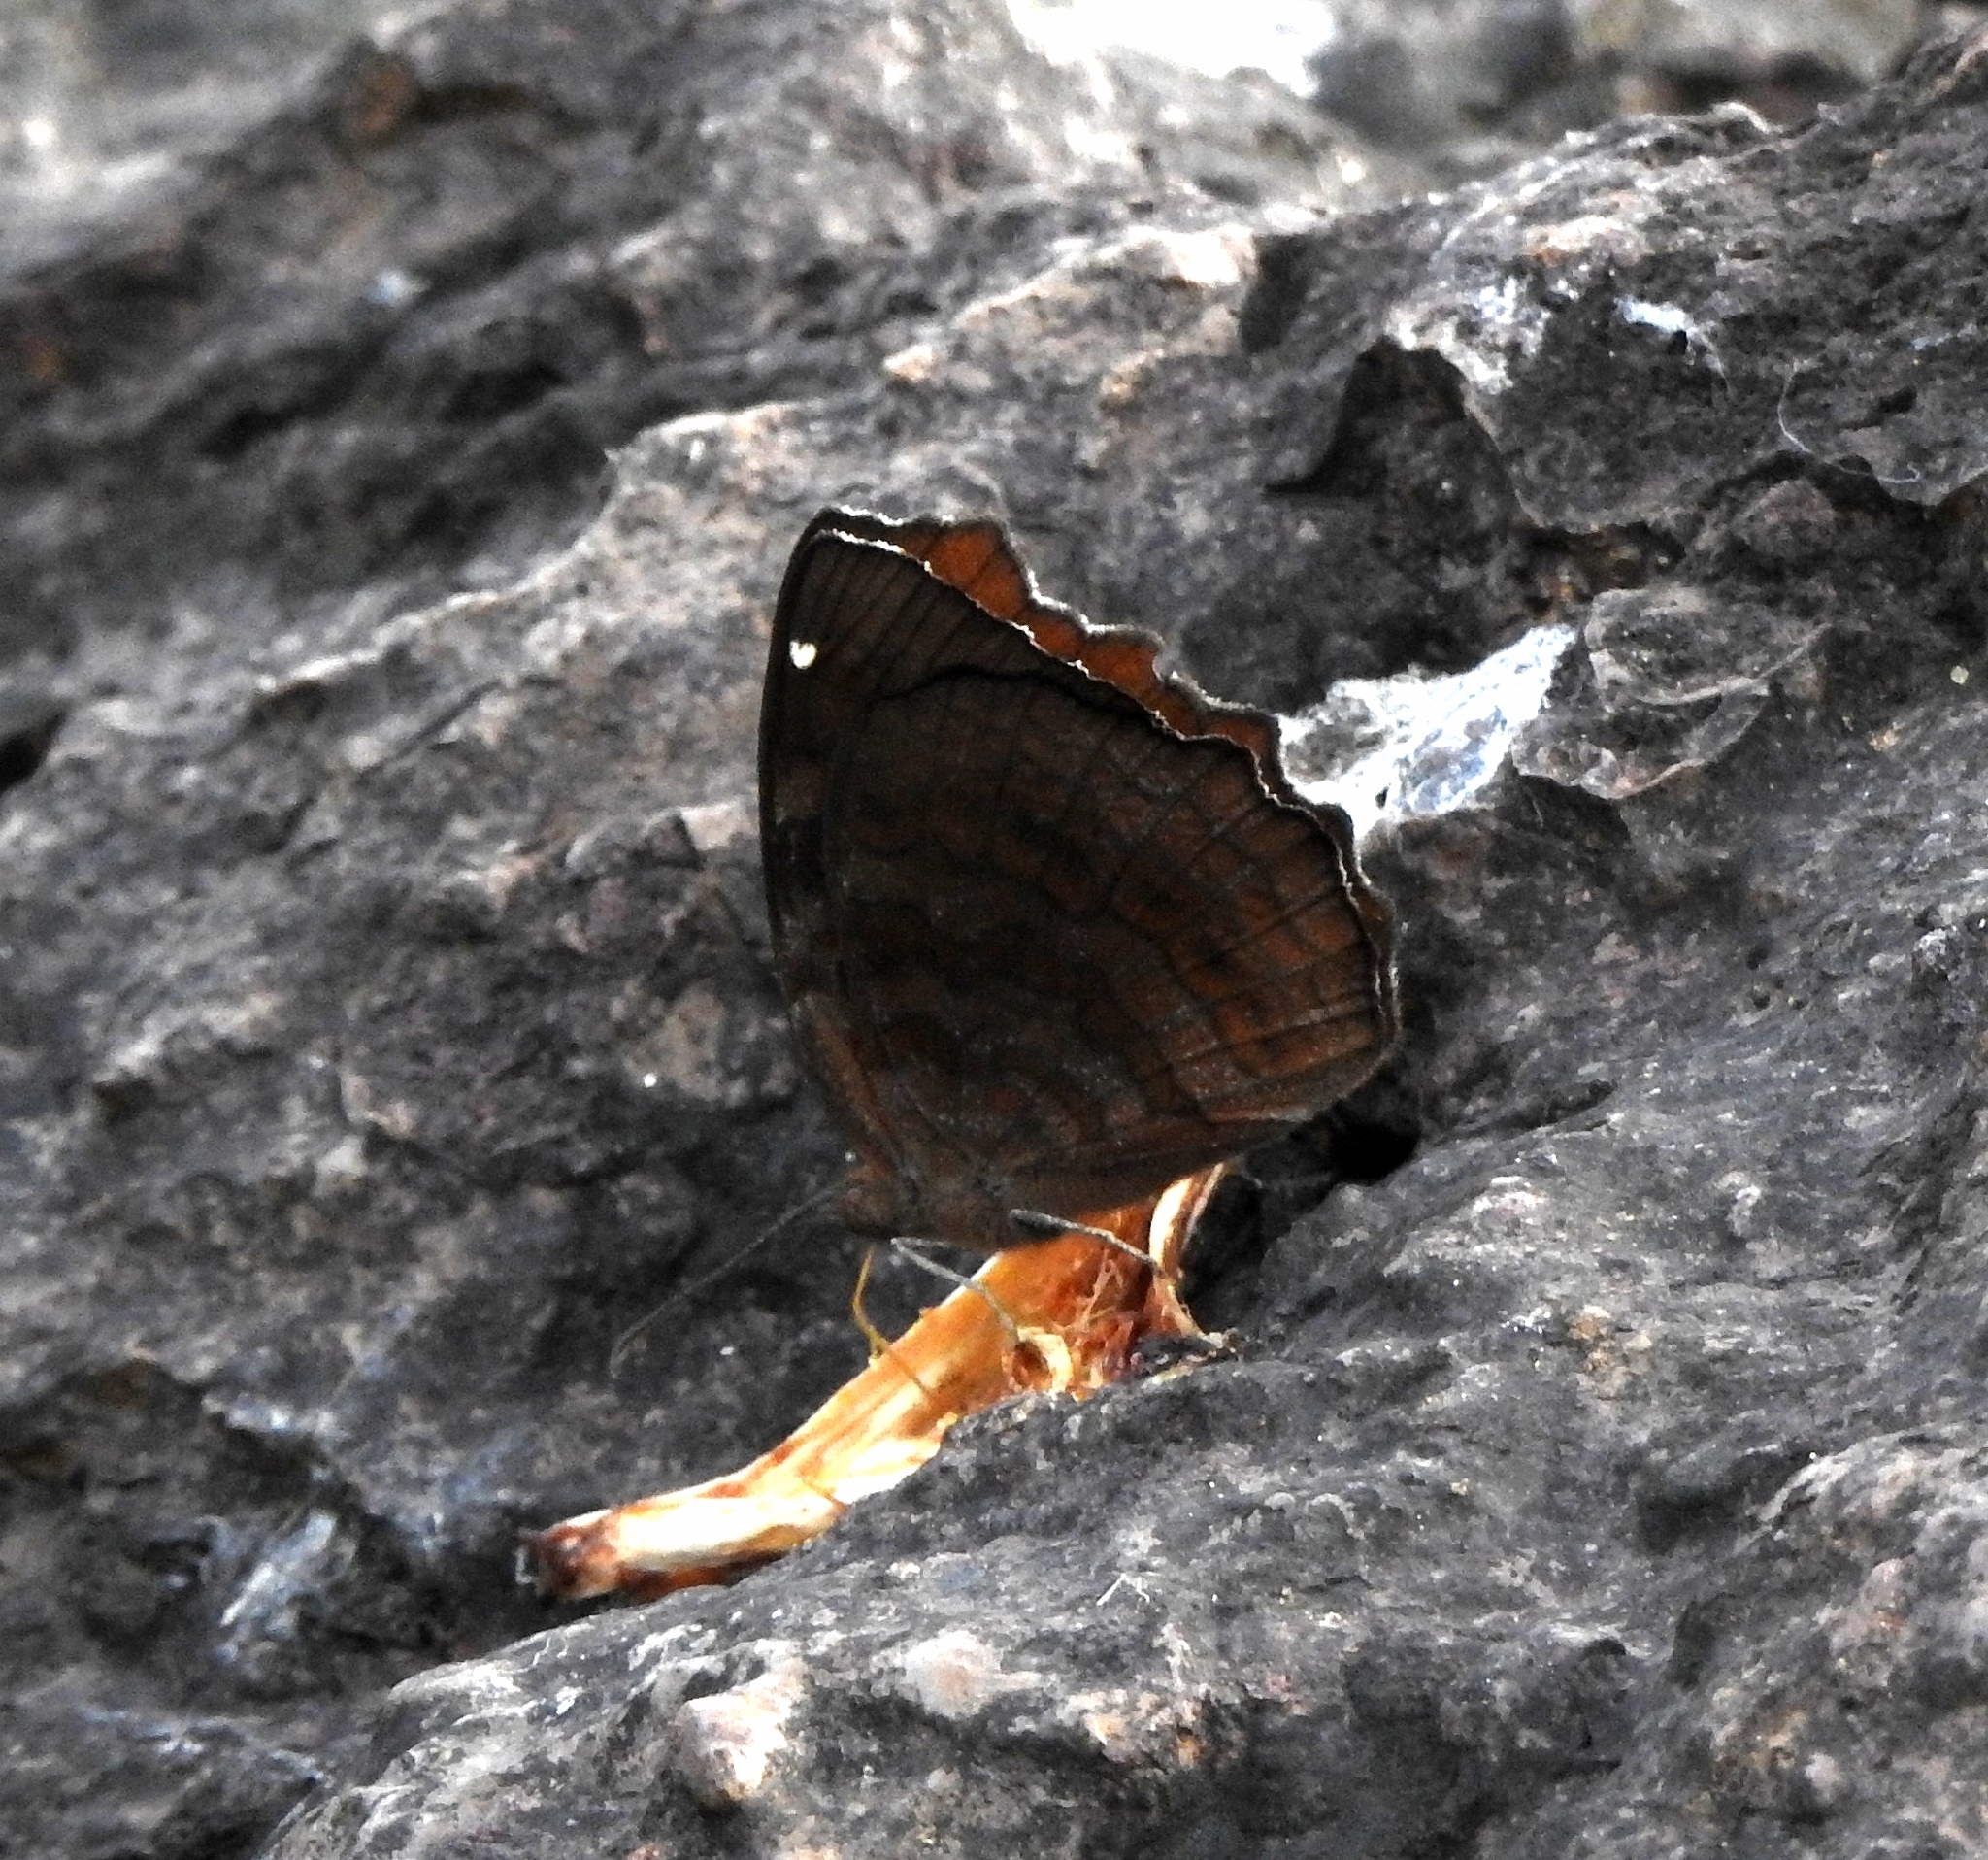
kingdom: Animalia
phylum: Arthropoda
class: Insecta
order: Lepidoptera
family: Nymphalidae
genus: Ariadne
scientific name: Ariadne ariadne
